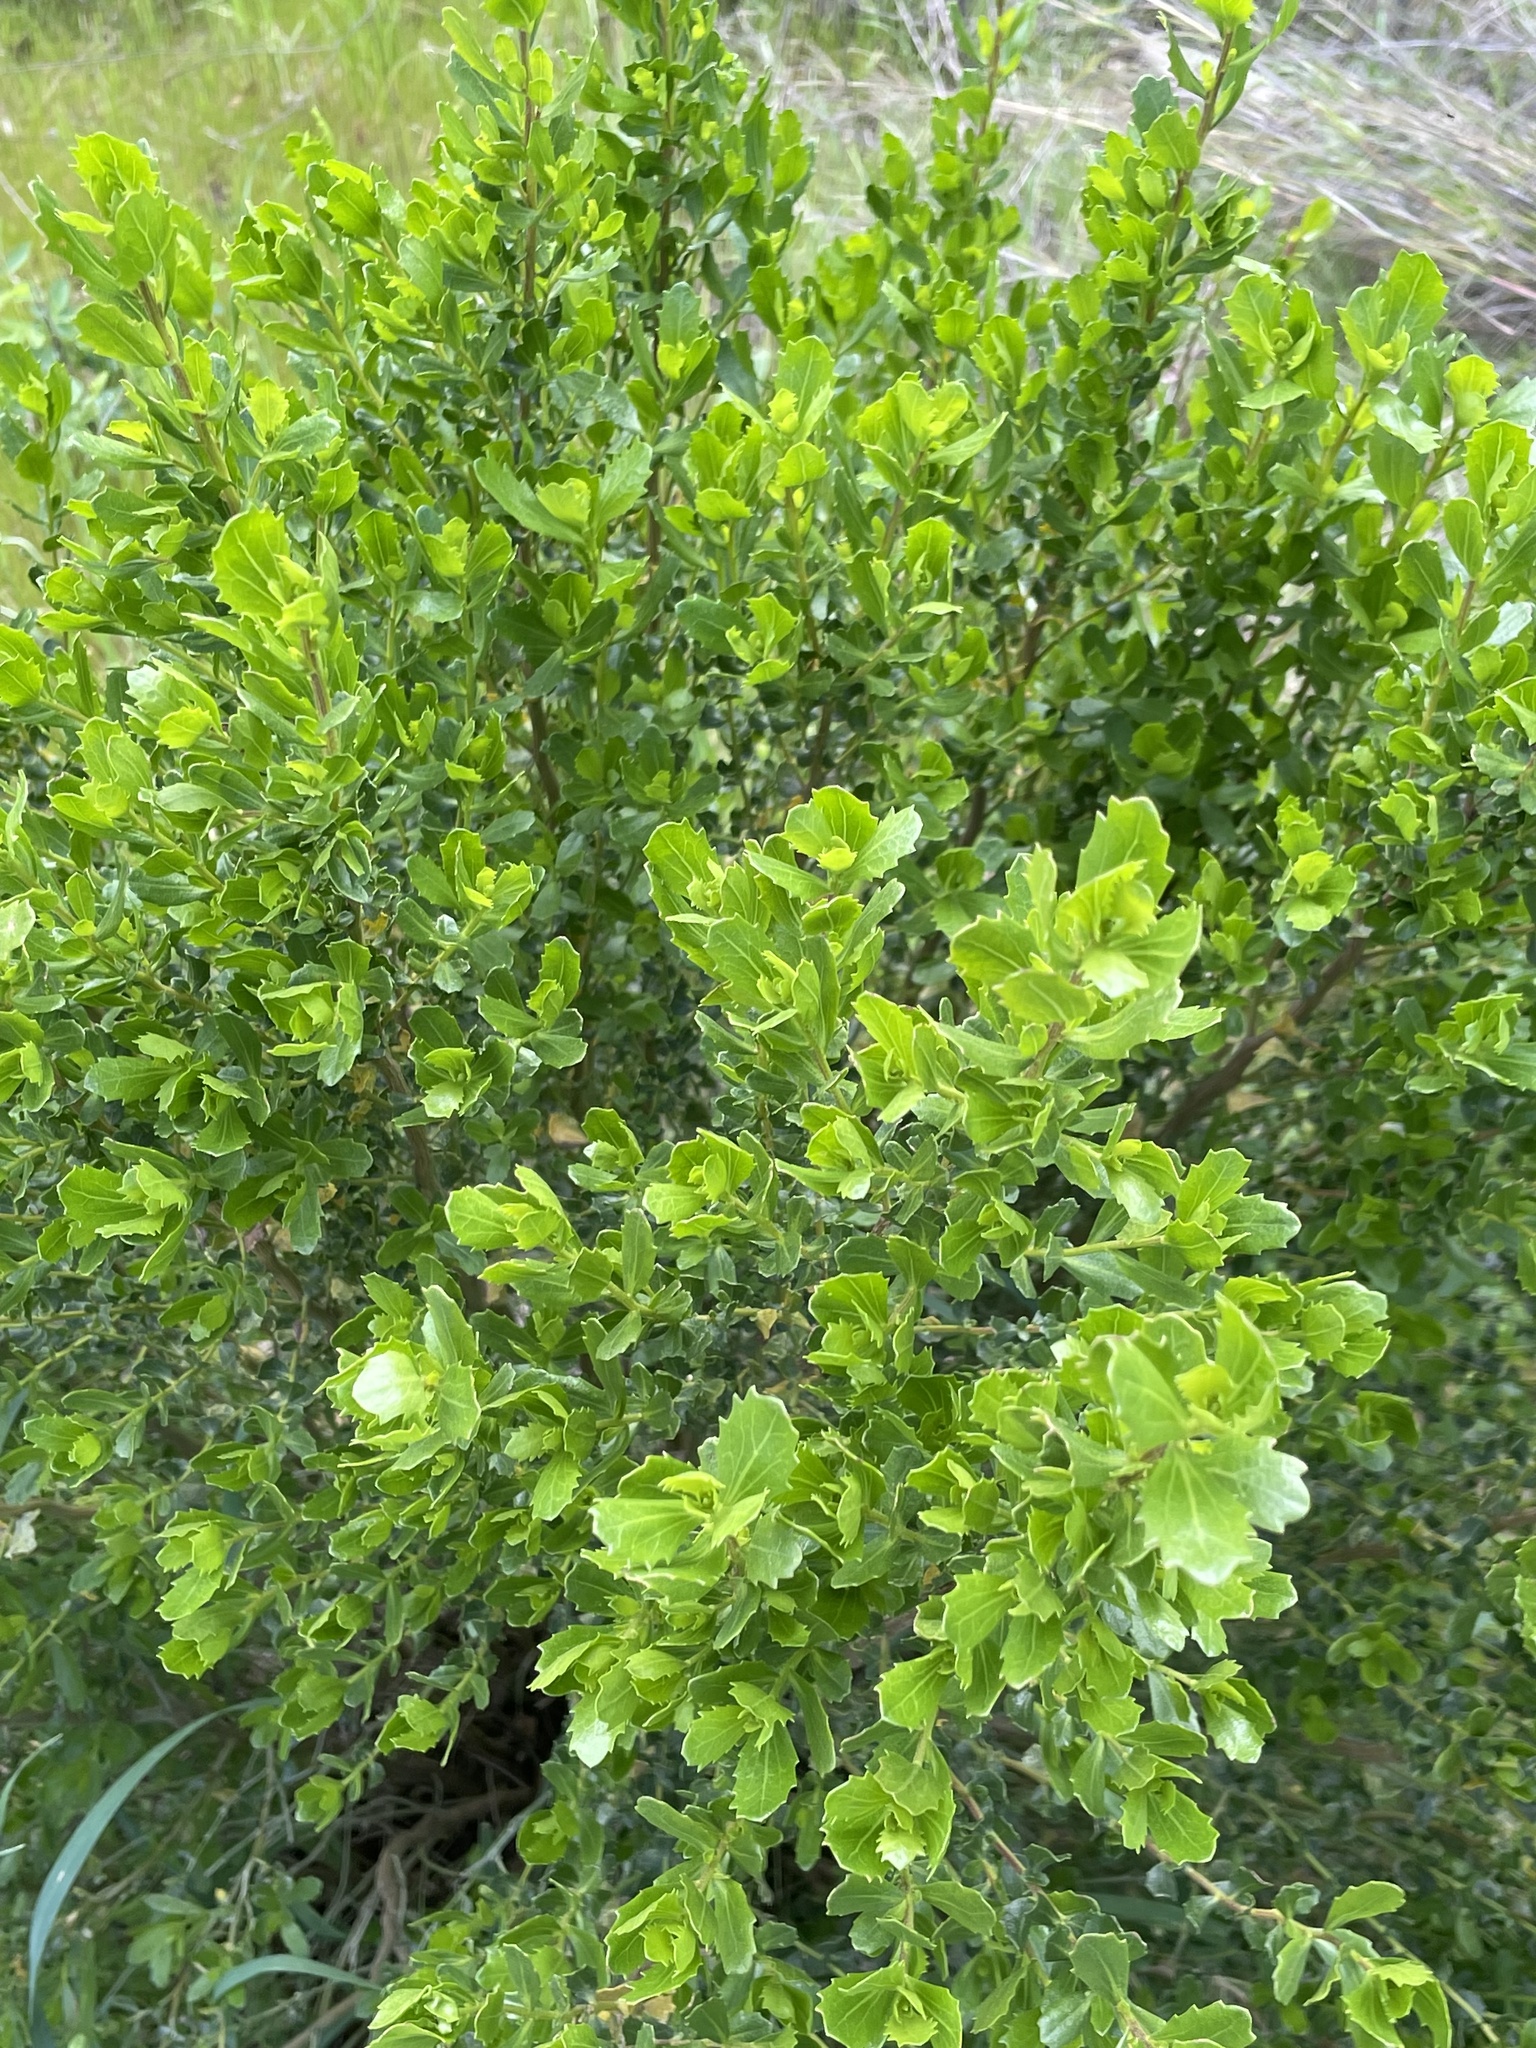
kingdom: Plantae
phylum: Tracheophyta
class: Magnoliopsida
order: Asterales
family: Asteraceae
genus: Baccharis
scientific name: Baccharis pilularis
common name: Coyotebrush
